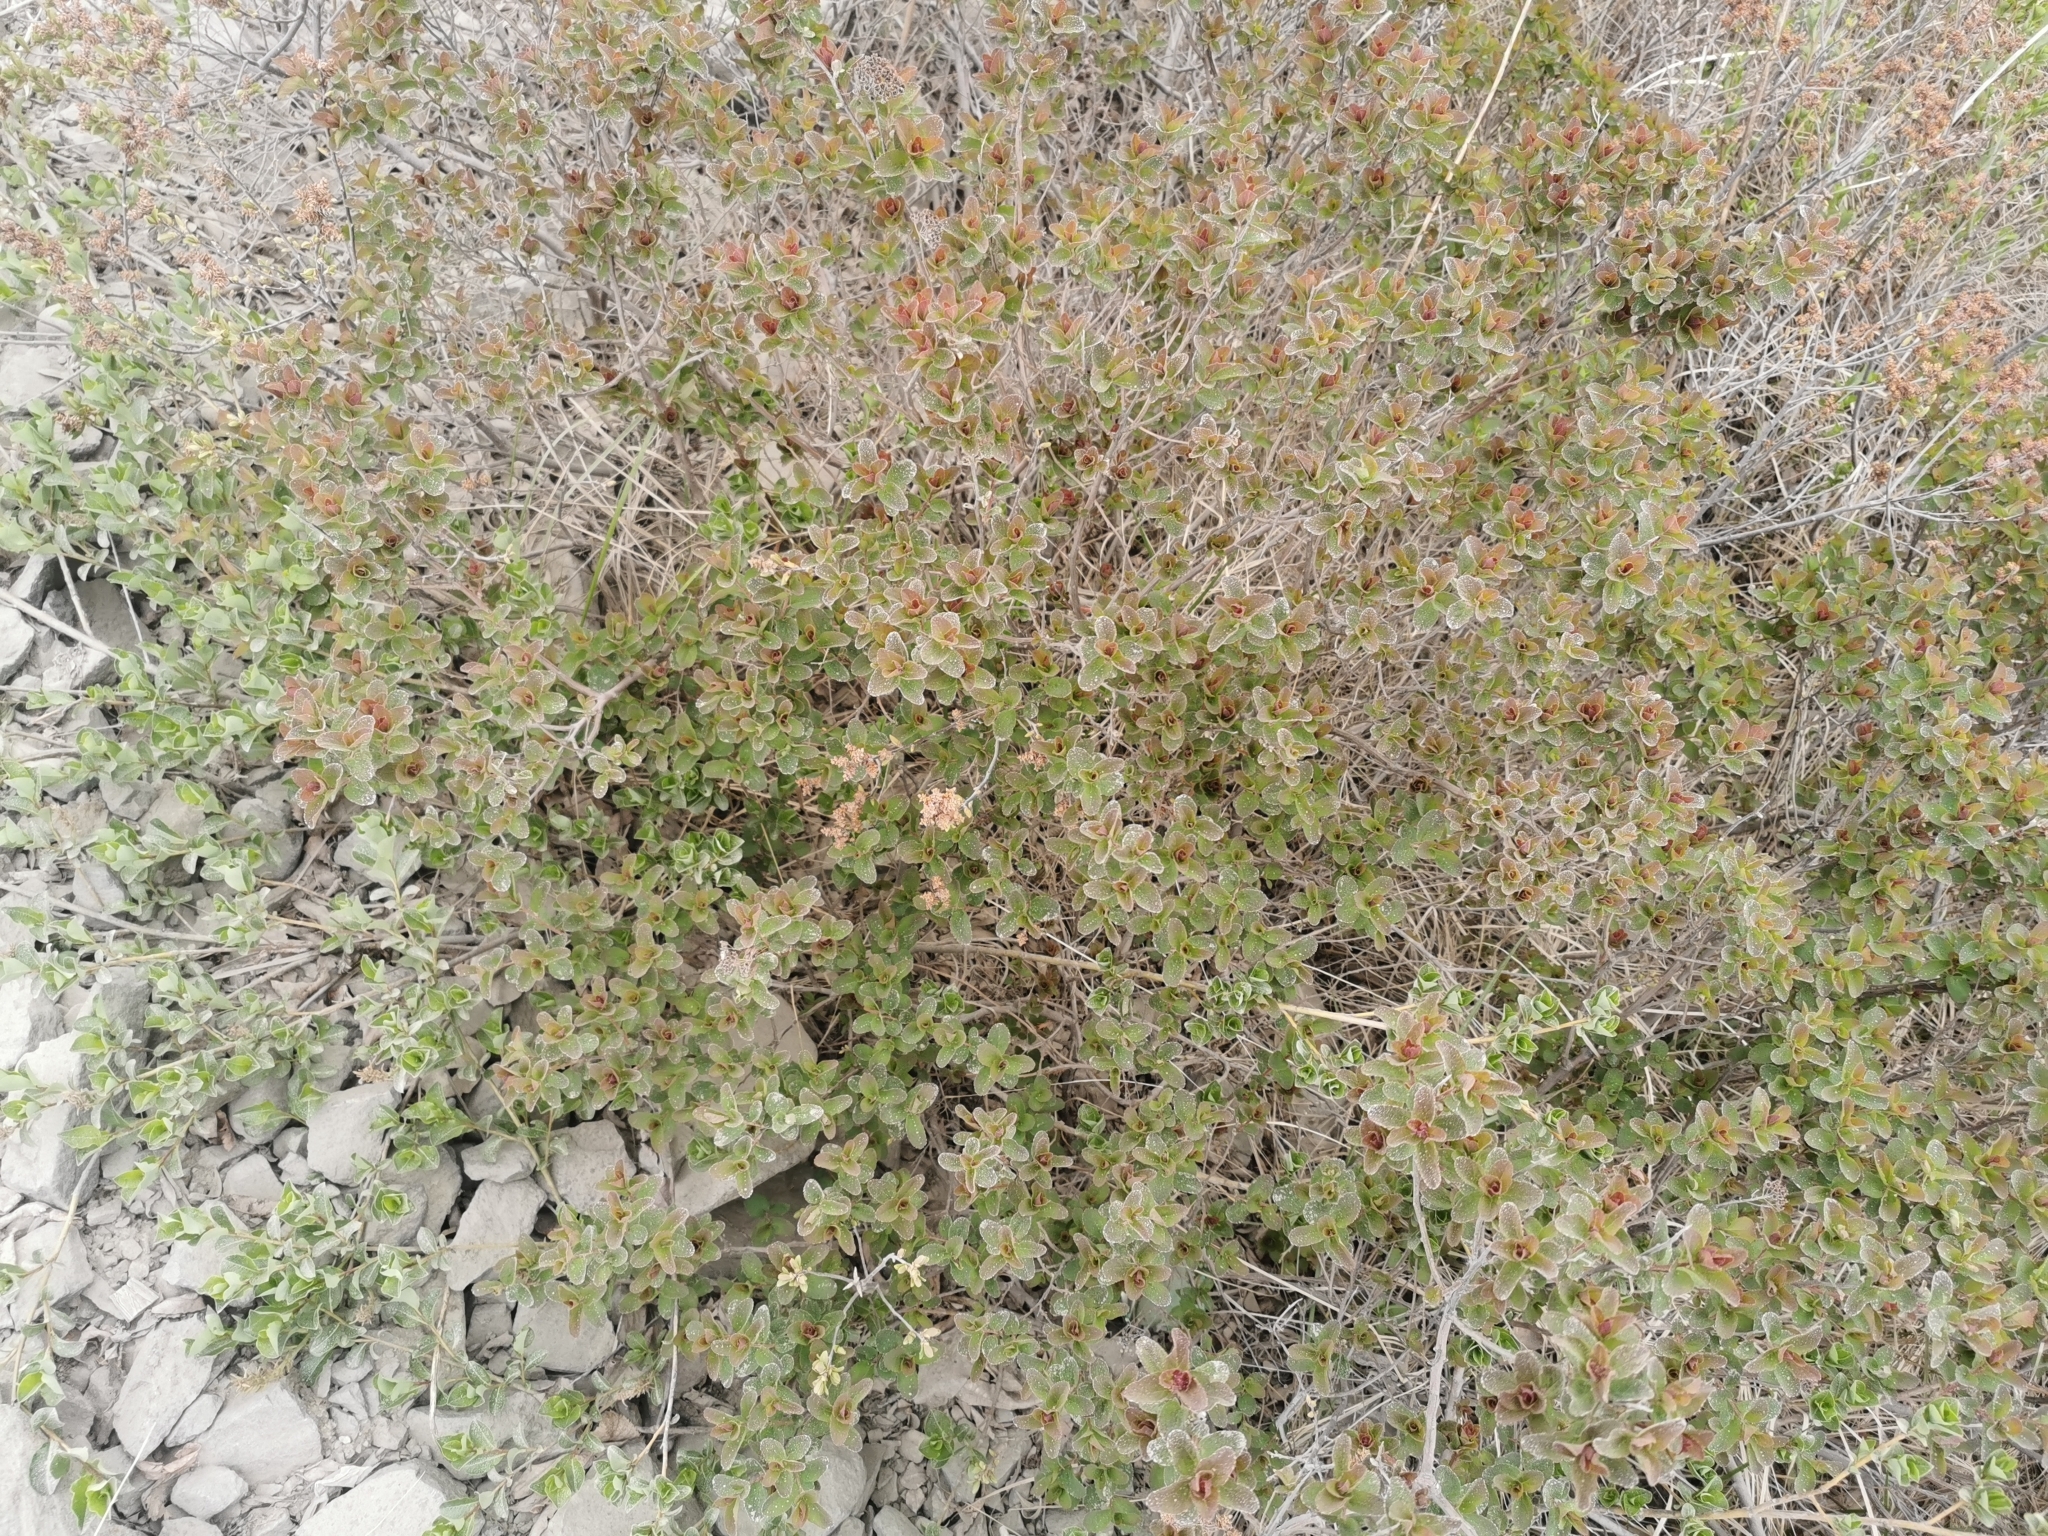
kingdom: Plantae
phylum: Tracheophyta
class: Magnoliopsida
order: Rosales
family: Rosaceae
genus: Spiraea
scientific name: Spiraea betulifolia
